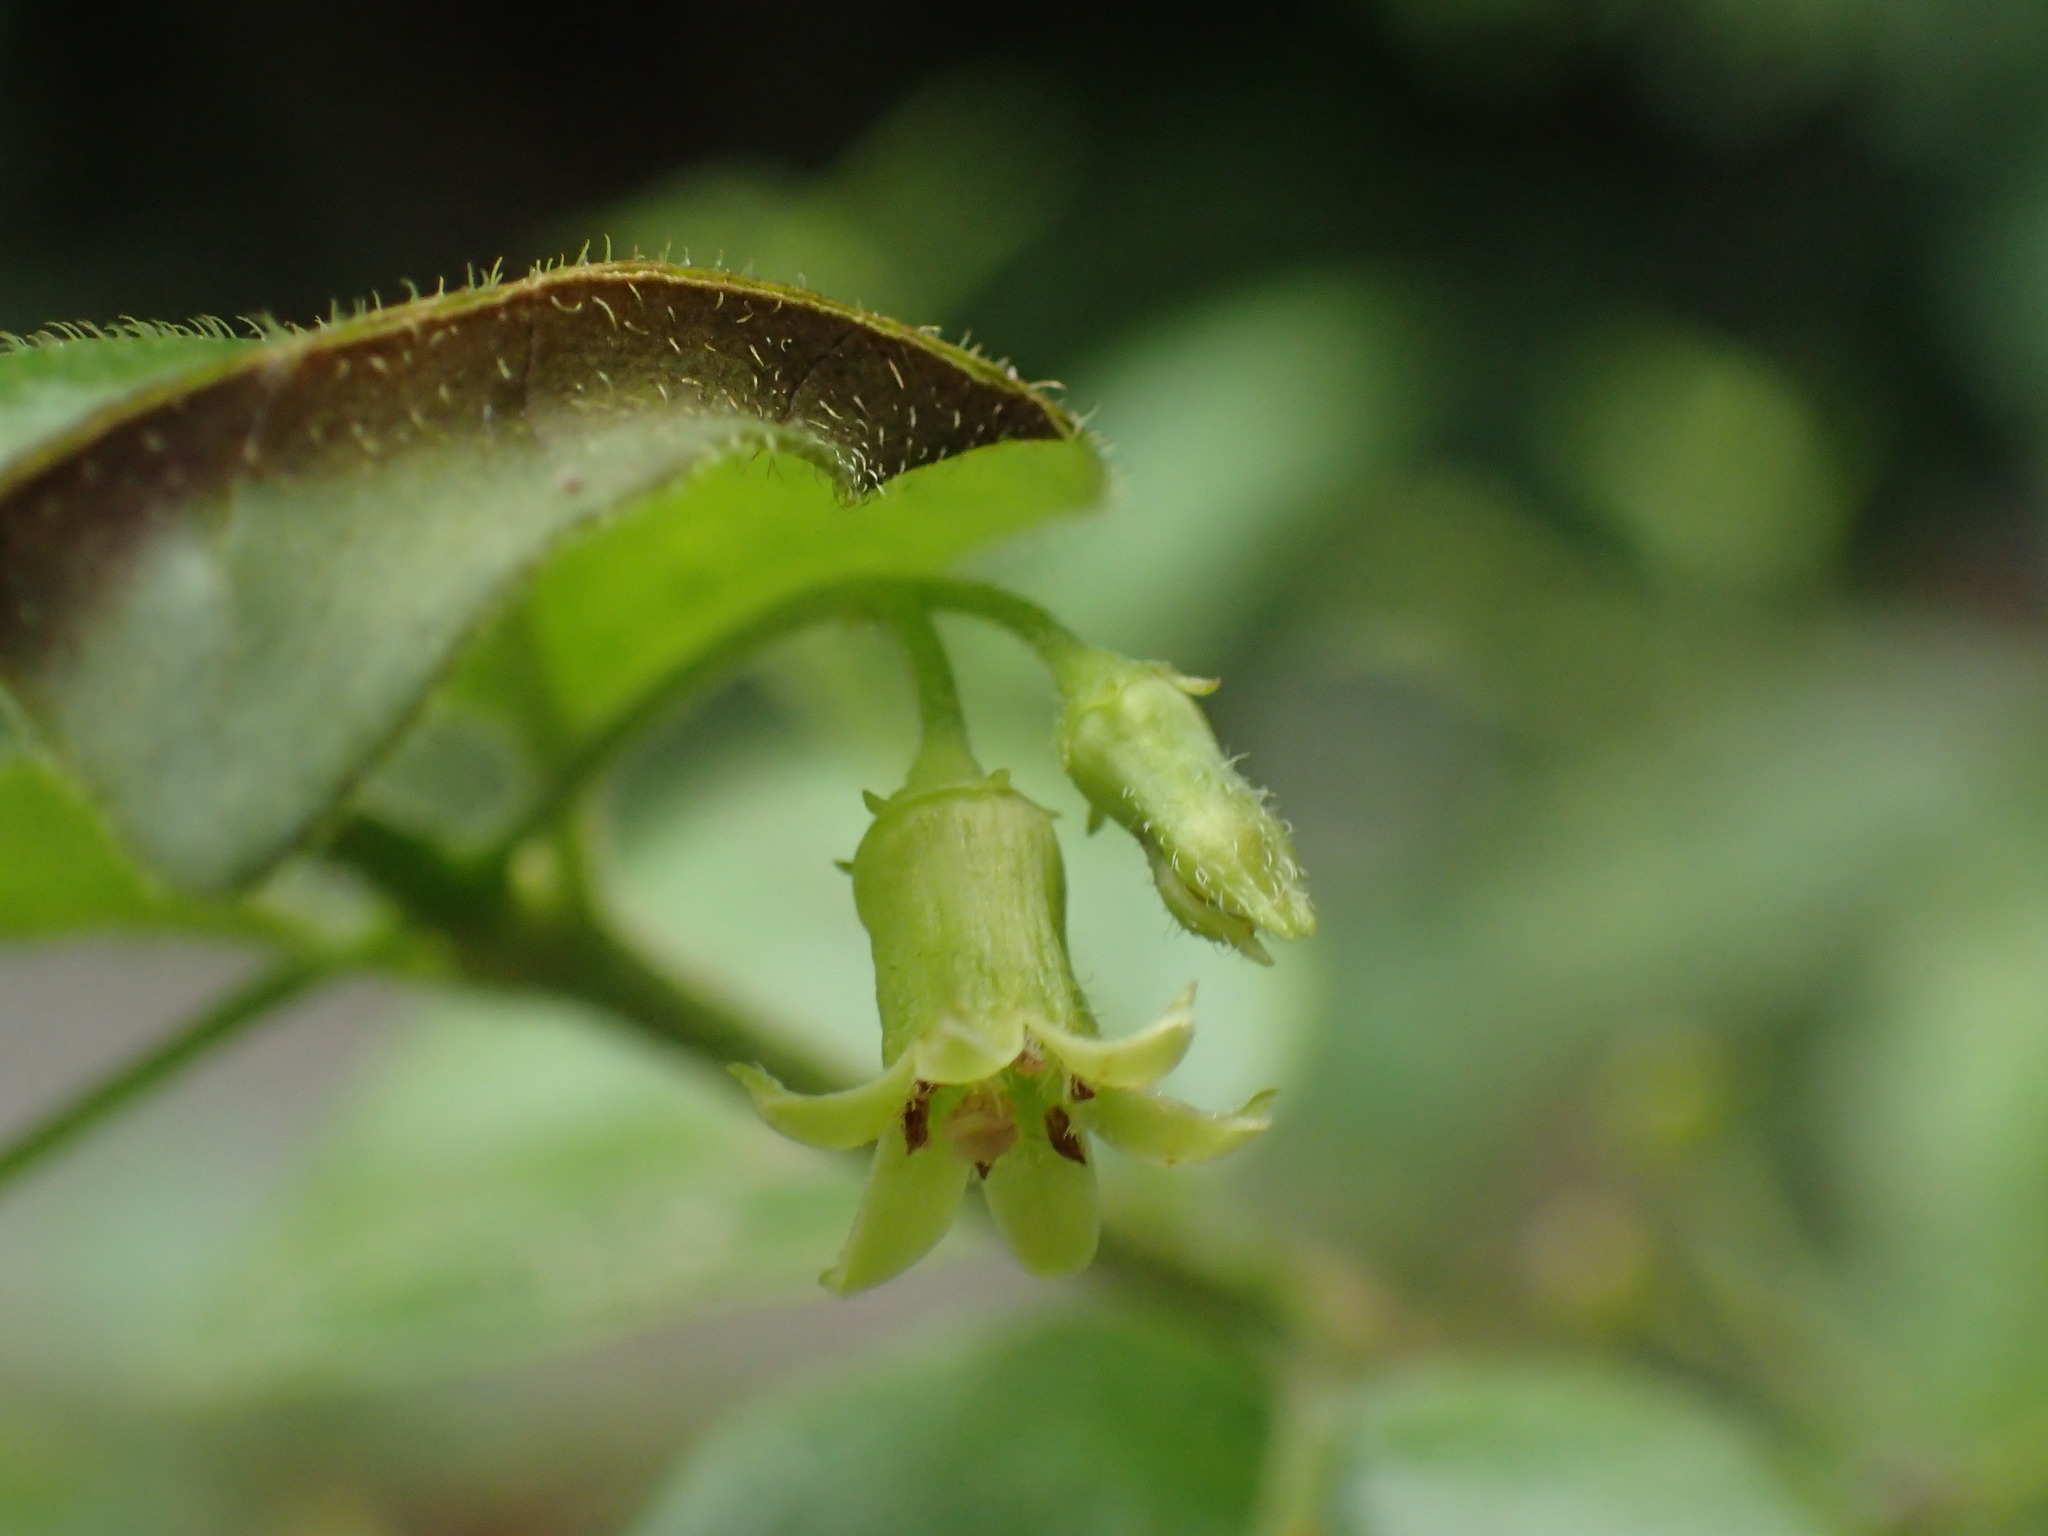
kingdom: Plantae
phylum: Tracheophyta
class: Magnoliopsida
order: Gentianales
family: Rubiaceae
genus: Canthium
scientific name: Canthium ciliatum
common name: Hairy turkey-berry
